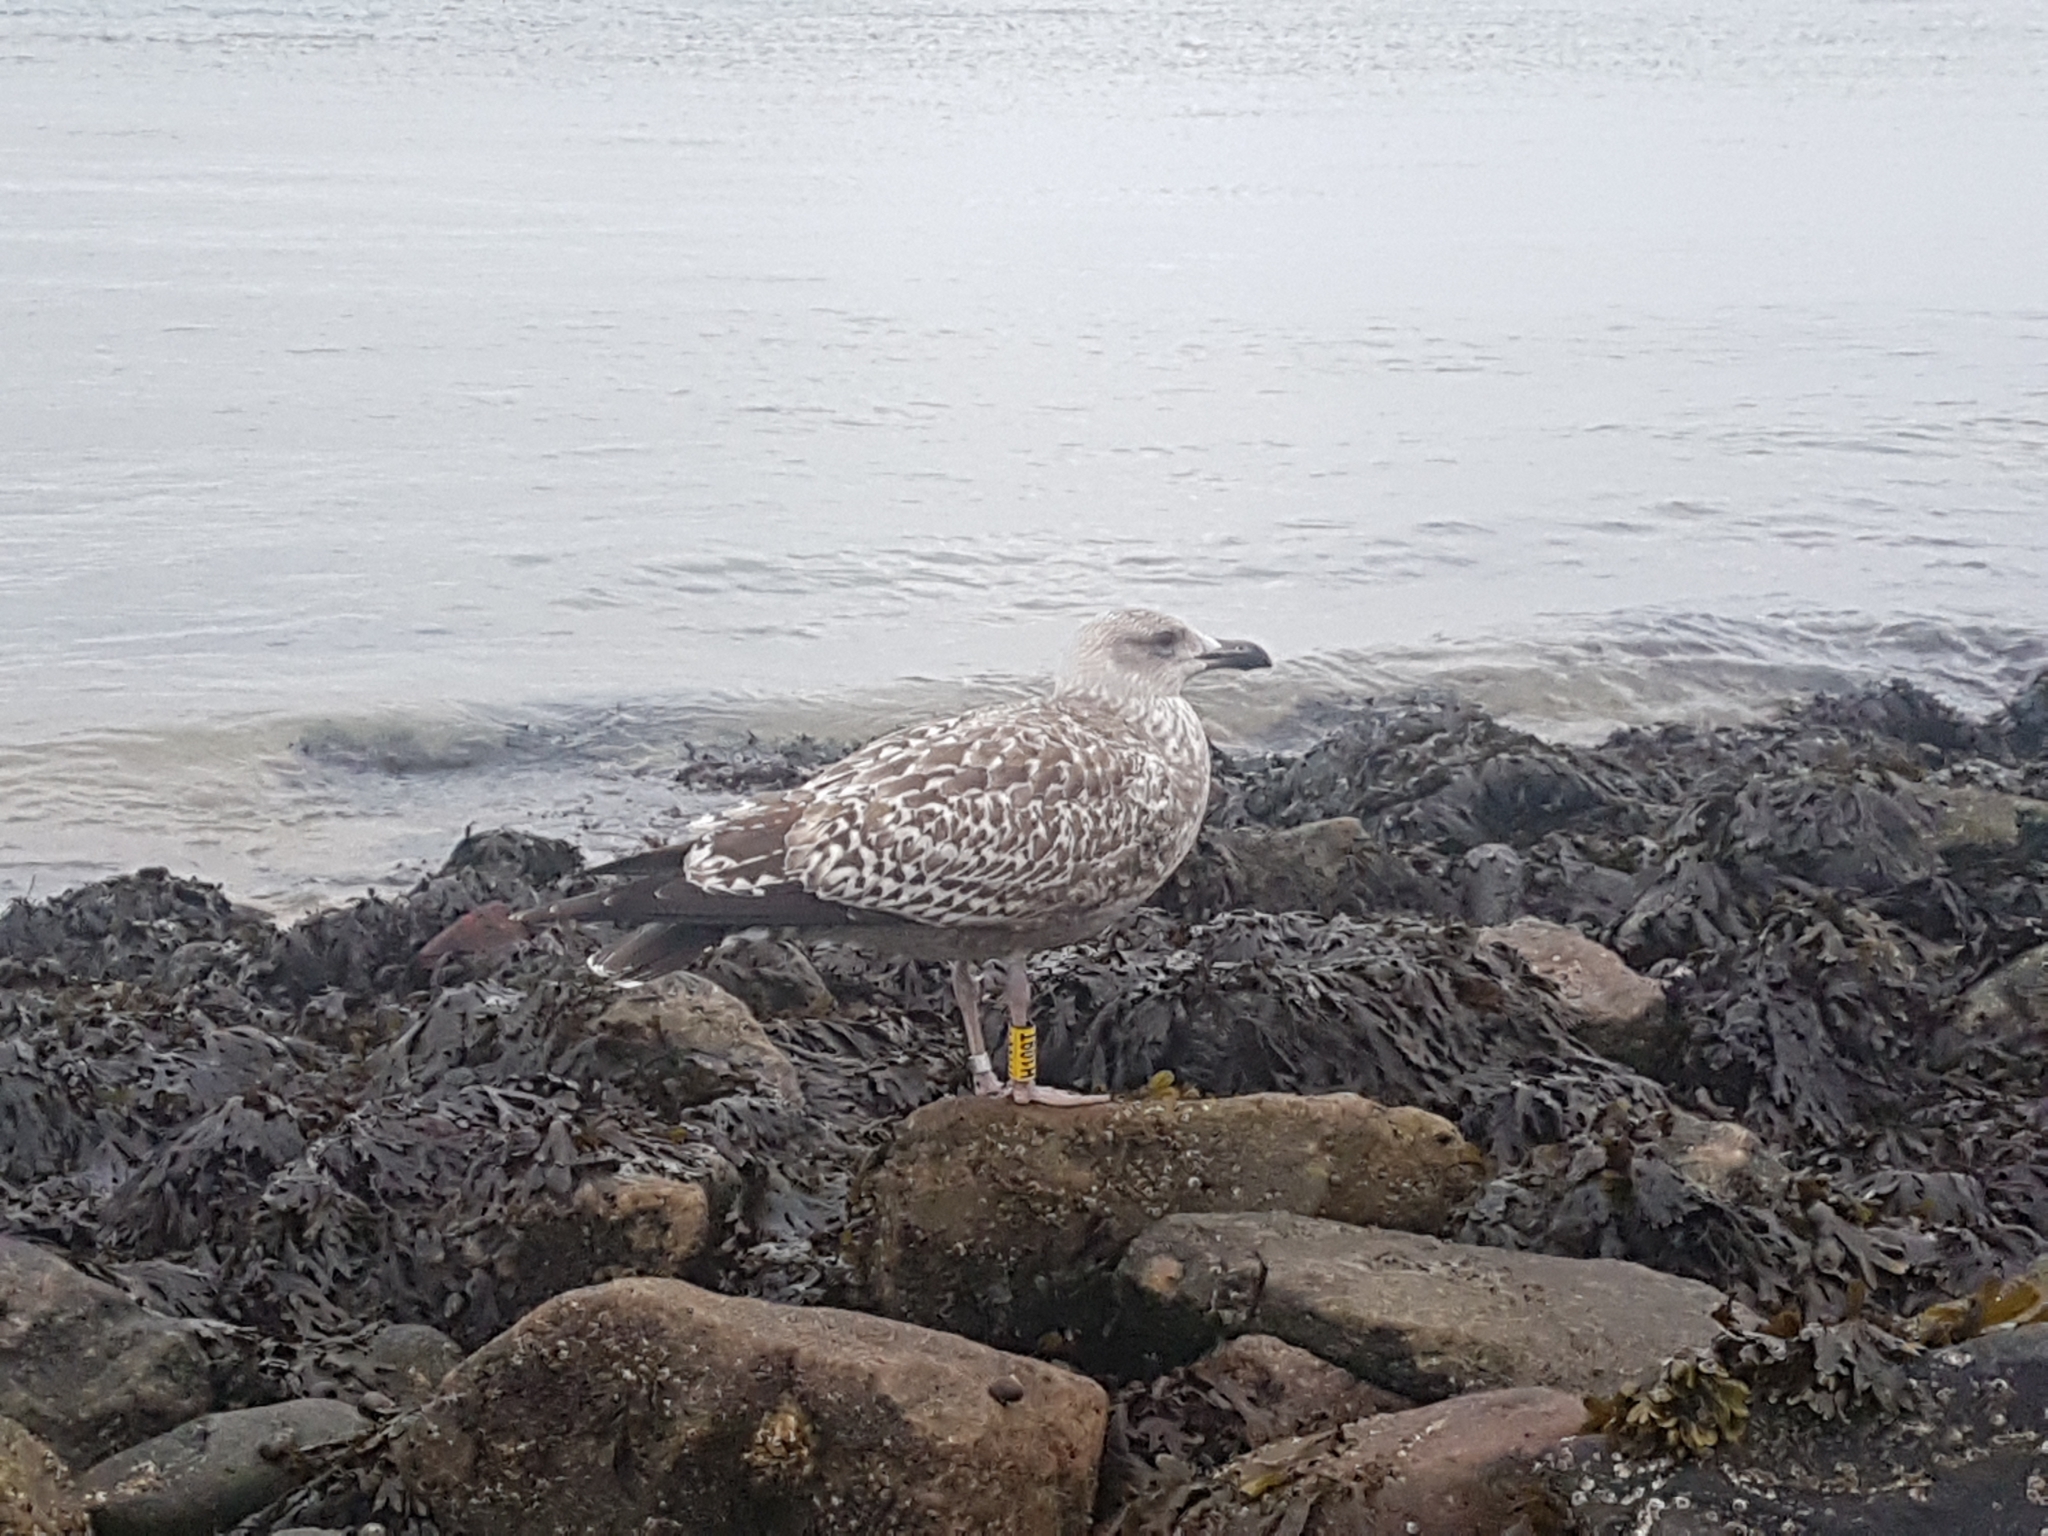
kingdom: Animalia
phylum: Chordata
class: Aves
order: Charadriiformes
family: Laridae
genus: Larus
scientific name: Larus argentatus
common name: Herring gull
